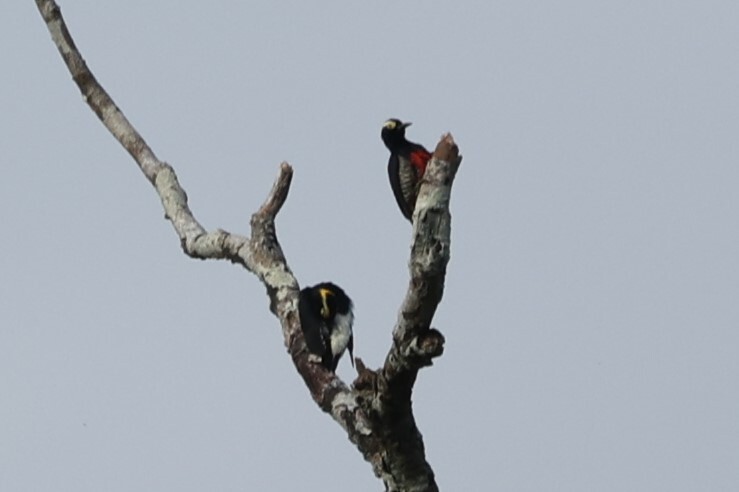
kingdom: Animalia
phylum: Chordata
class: Aves
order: Piciformes
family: Picidae
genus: Melanerpes
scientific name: Melanerpes cruentatus
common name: Yellow-tufted woodpecker
